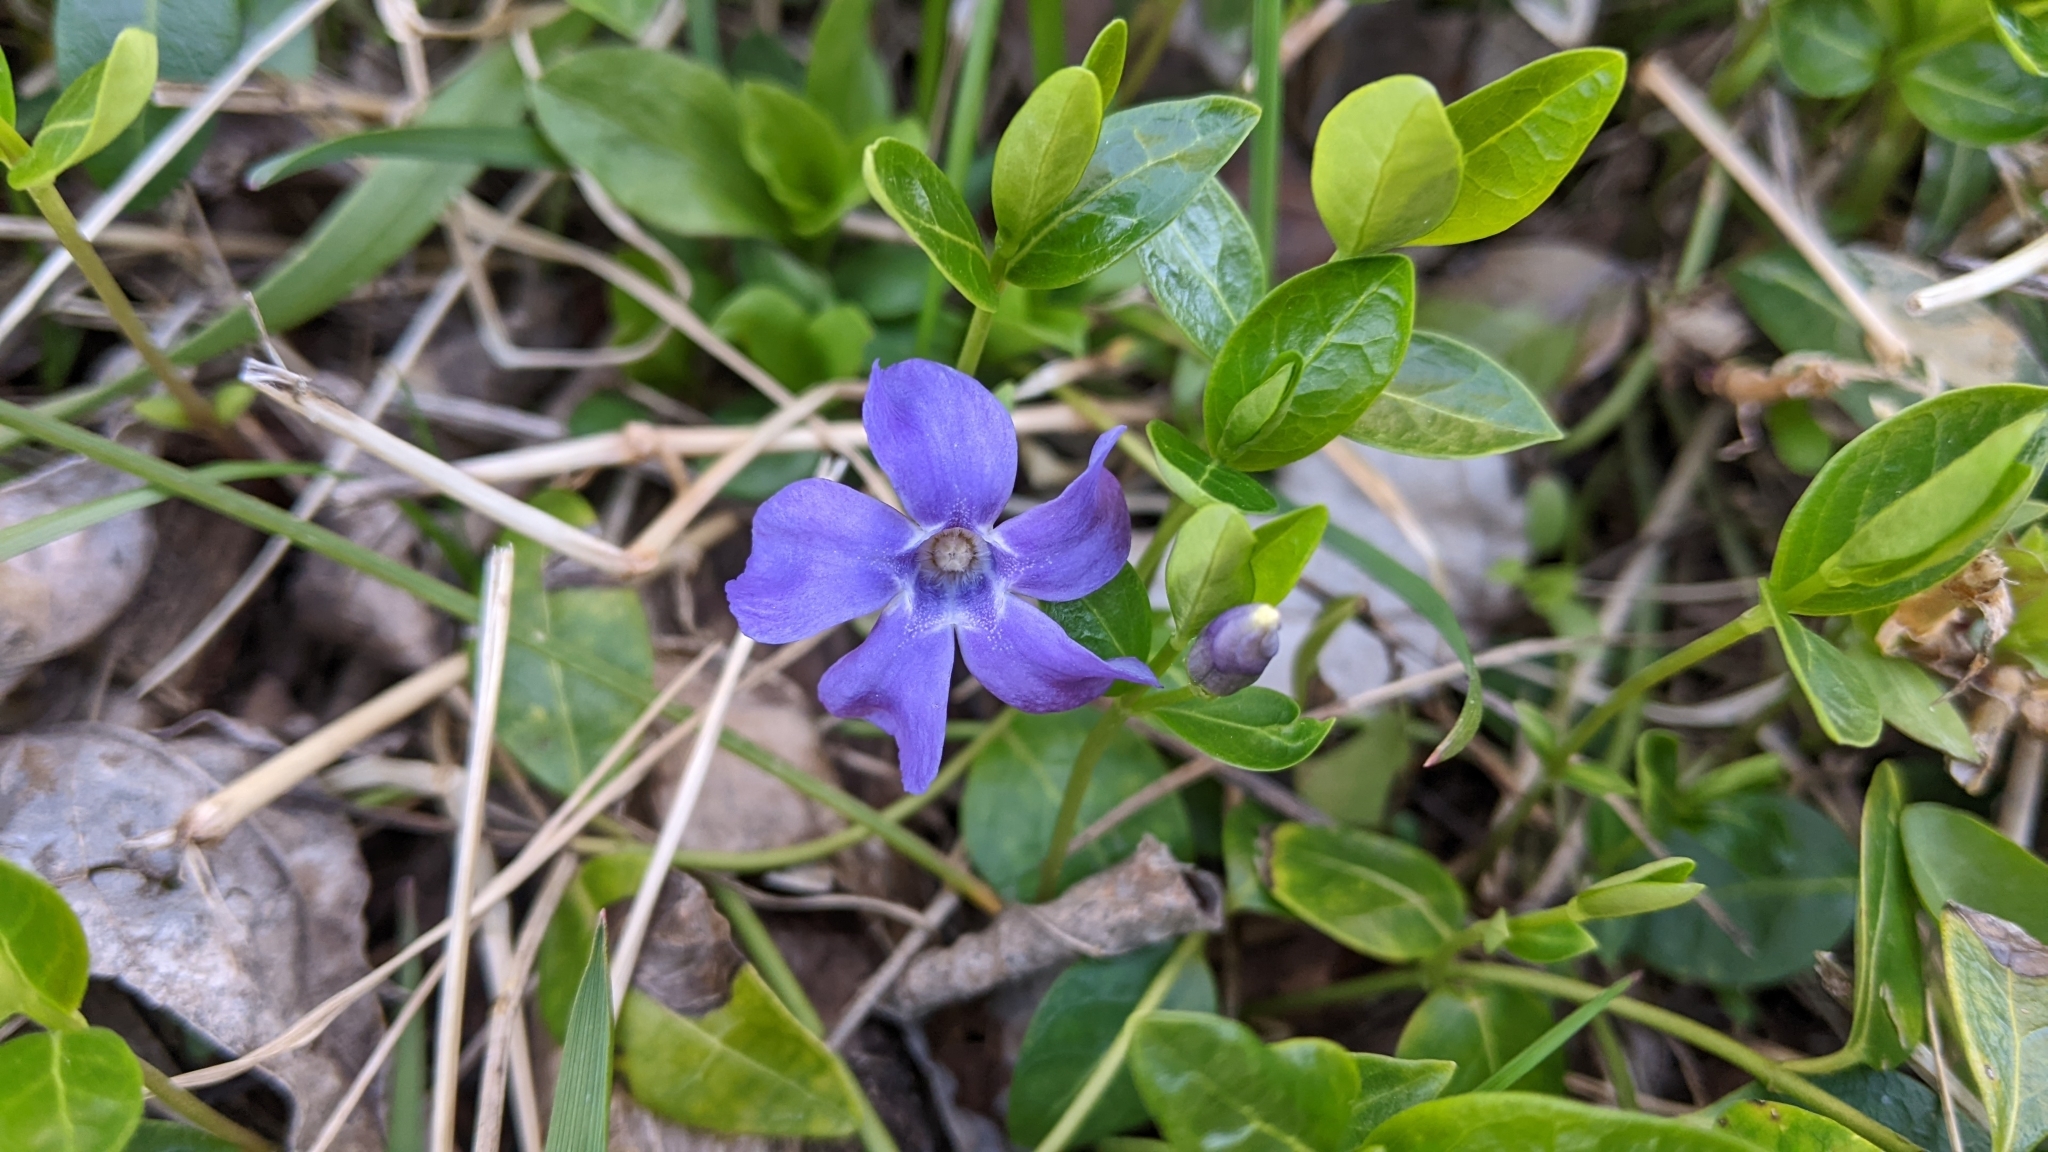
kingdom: Plantae
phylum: Tracheophyta
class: Magnoliopsida
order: Gentianales
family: Apocynaceae
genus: Vinca
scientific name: Vinca minor
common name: Lesser periwinkle
